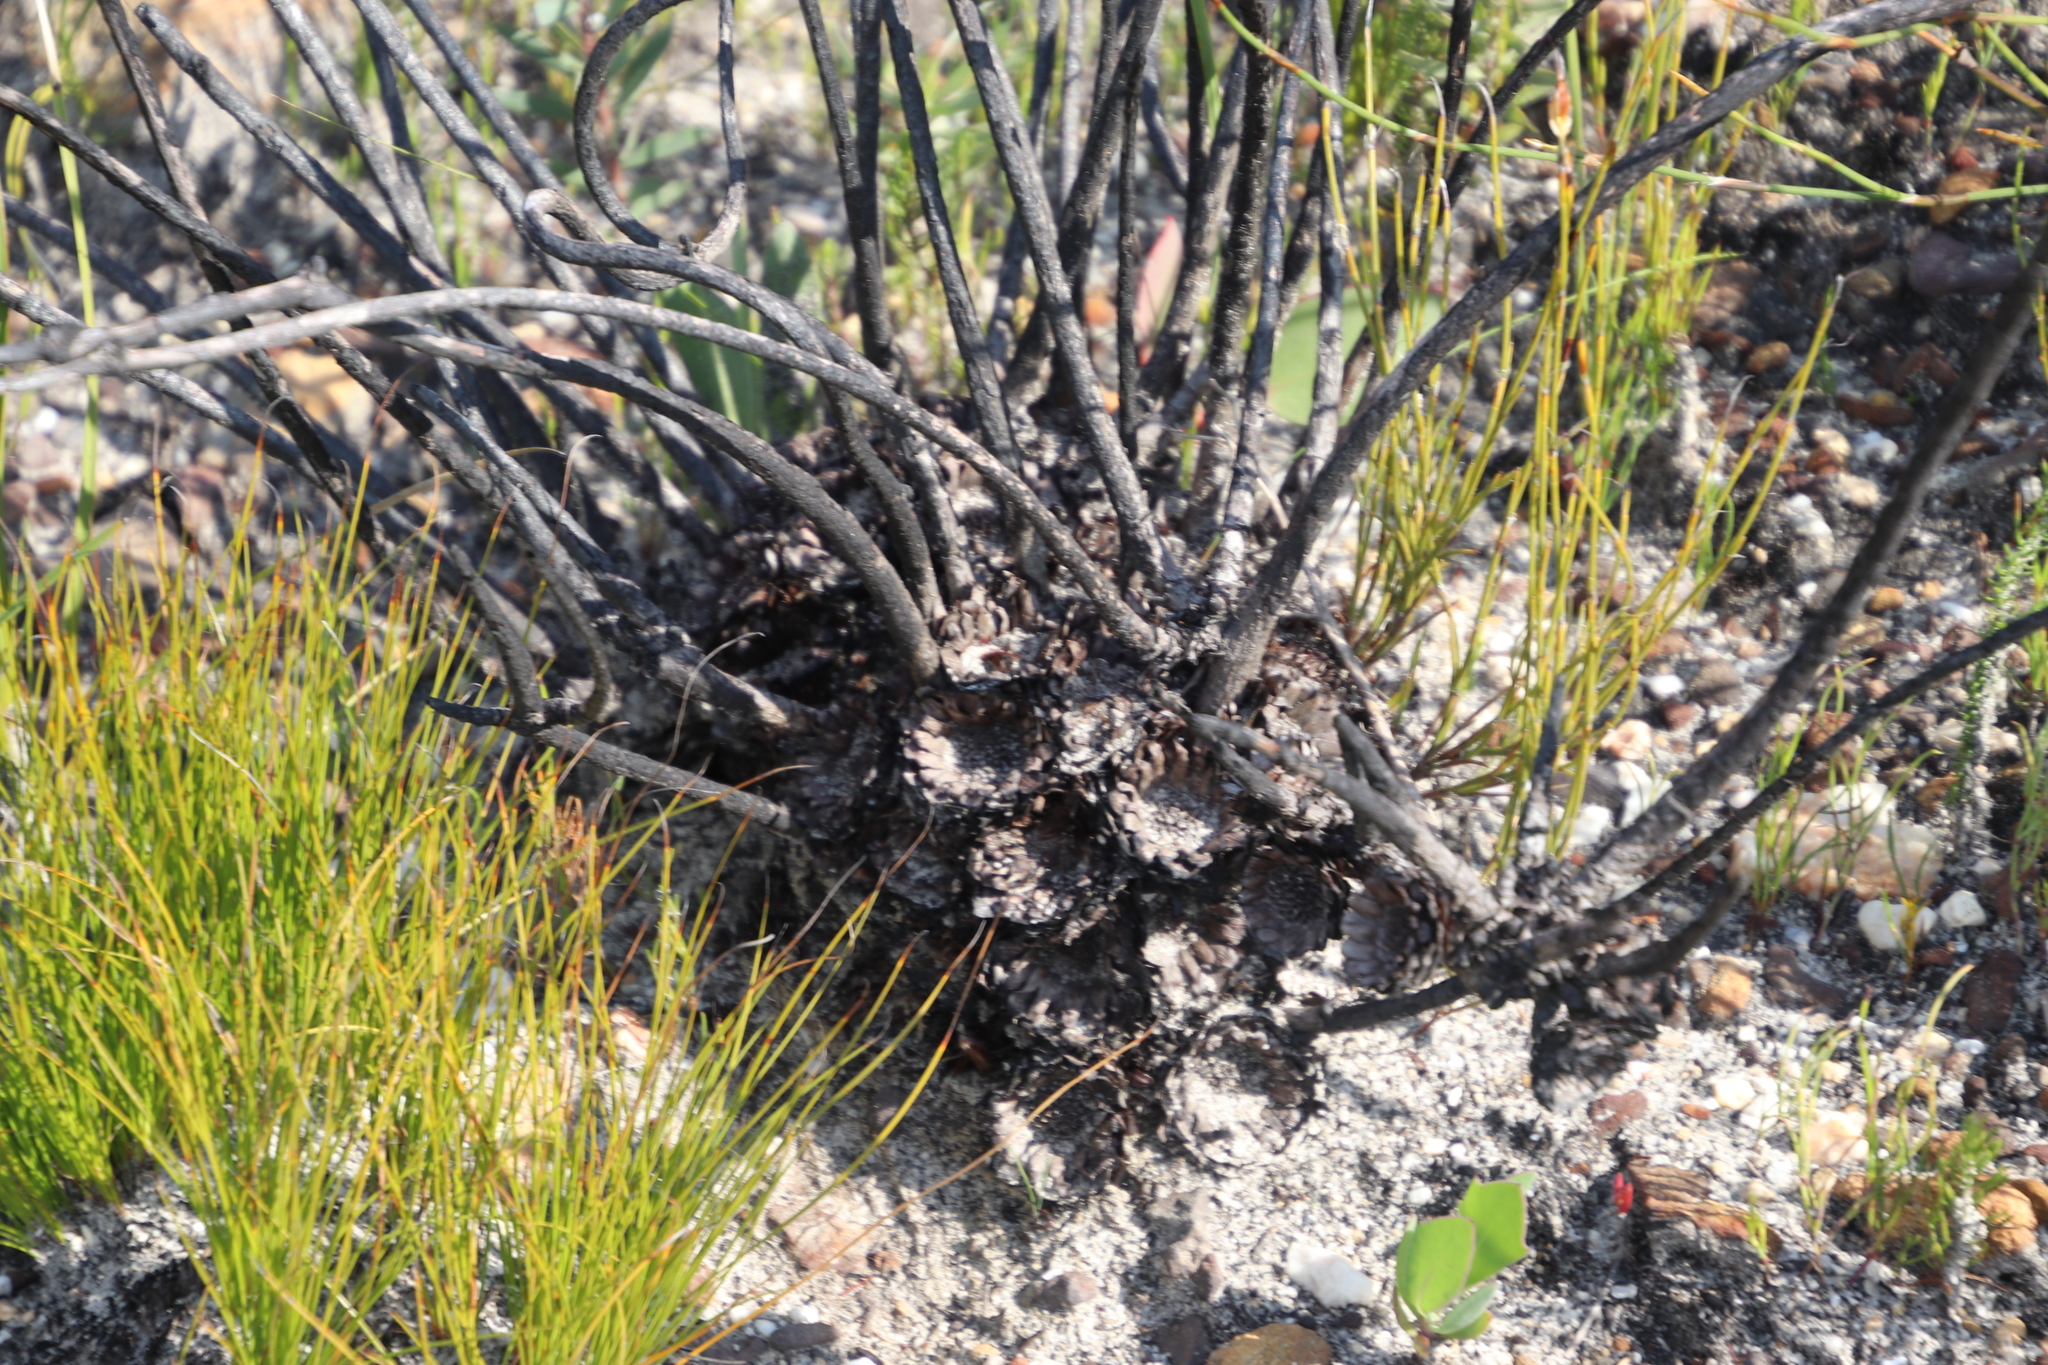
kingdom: Plantae
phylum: Tracheophyta
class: Magnoliopsida
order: Proteales
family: Proteaceae
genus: Protea
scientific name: Protea cordata
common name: Heart-leaf sugarbush
